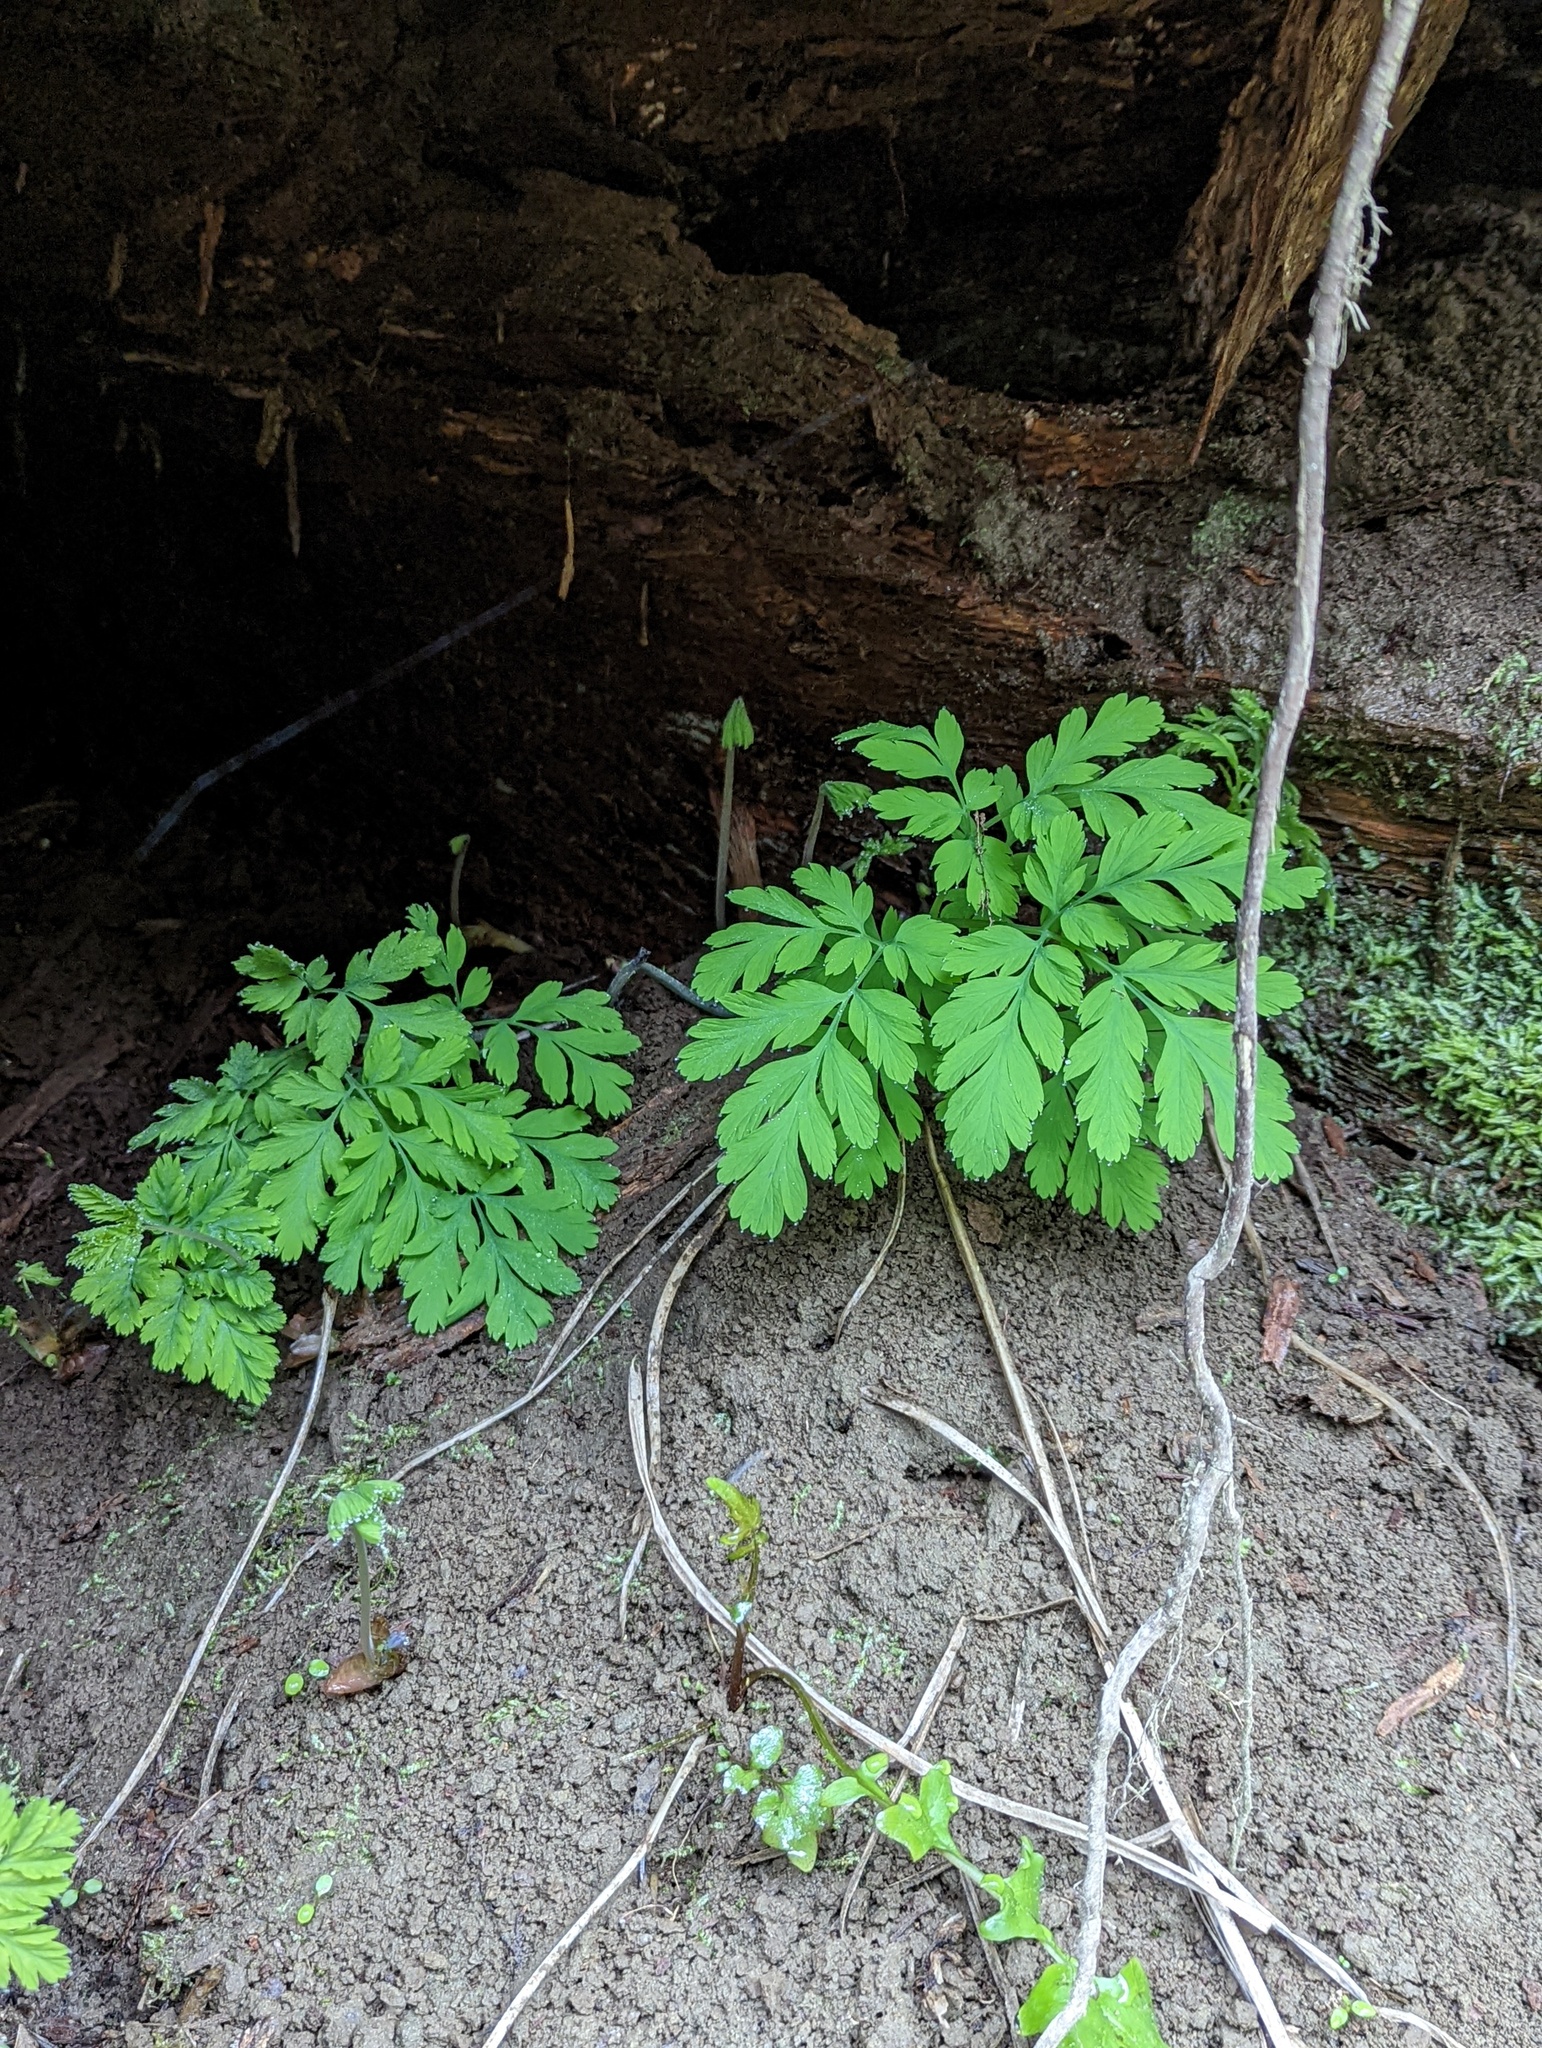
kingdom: Plantae
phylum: Tracheophyta
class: Magnoliopsida
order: Ranunculales
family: Papaveraceae
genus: Dicentra
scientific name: Dicentra formosa
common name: Bleeding-heart
